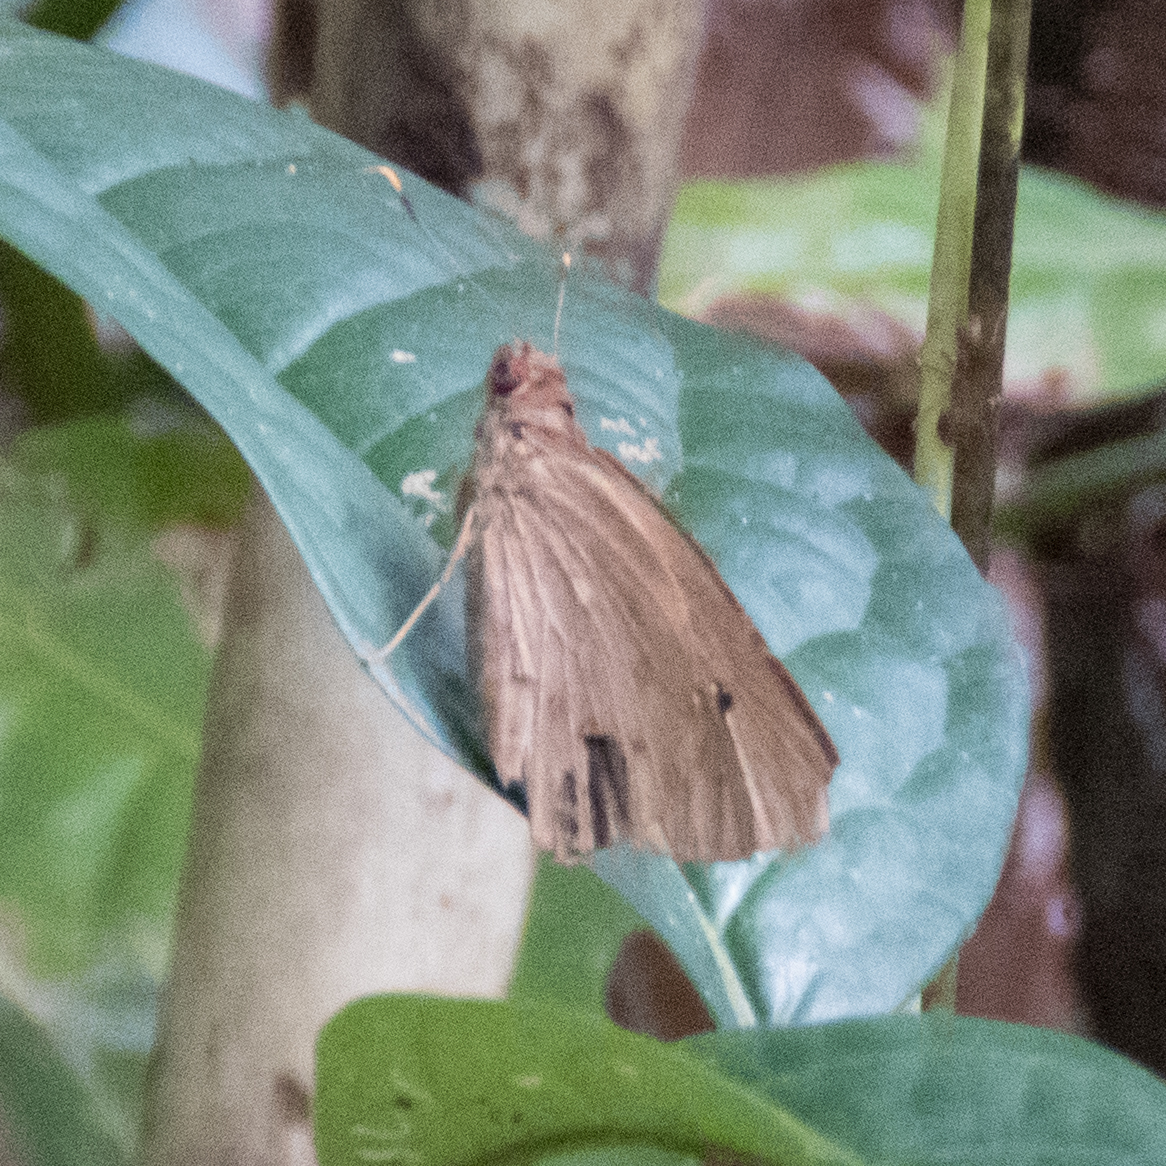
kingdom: Animalia
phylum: Arthropoda
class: Insecta
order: Lepidoptera
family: Hesperiidae
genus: Hidari
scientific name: Hidari irava
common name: Coconut skipper
